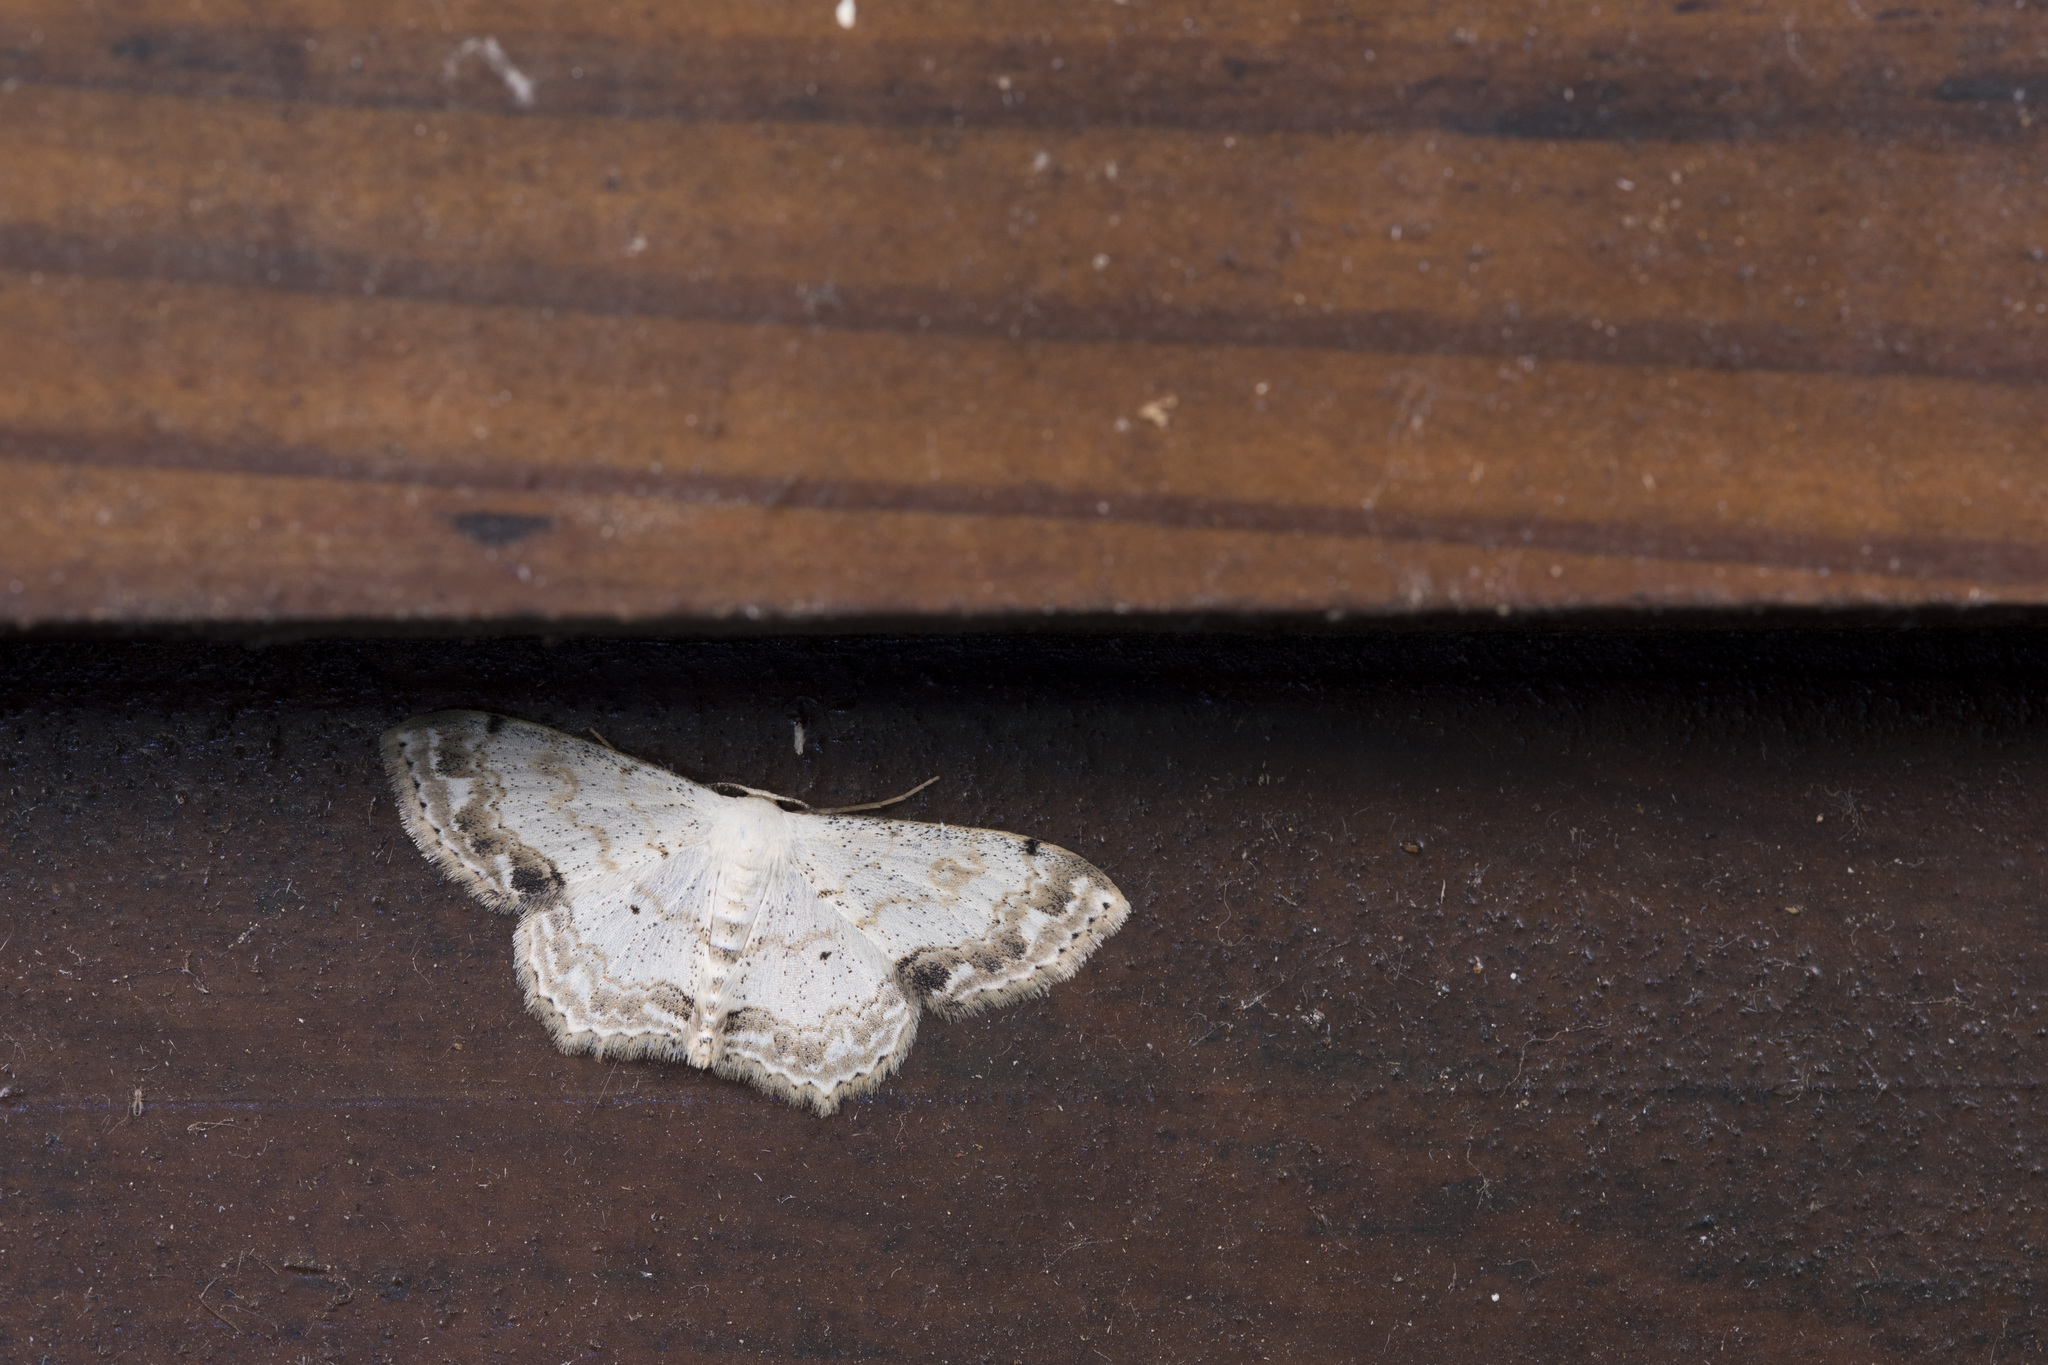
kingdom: Animalia
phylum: Arthropoda
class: Insecta
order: Lepidoptera
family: Geometridae
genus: Scopula
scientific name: Scopula propinquaria
